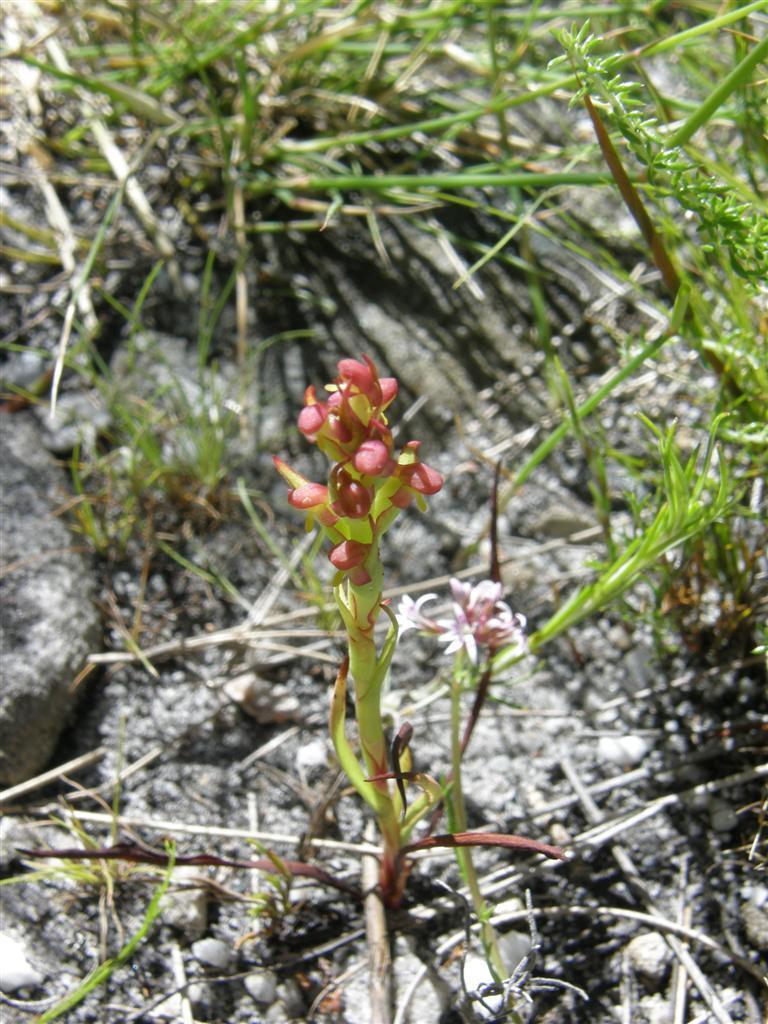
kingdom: Plantae
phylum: Tracheophyta
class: Liliopsida
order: Asparagales
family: Orchidaceae
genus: Disa
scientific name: Disa bracteata
